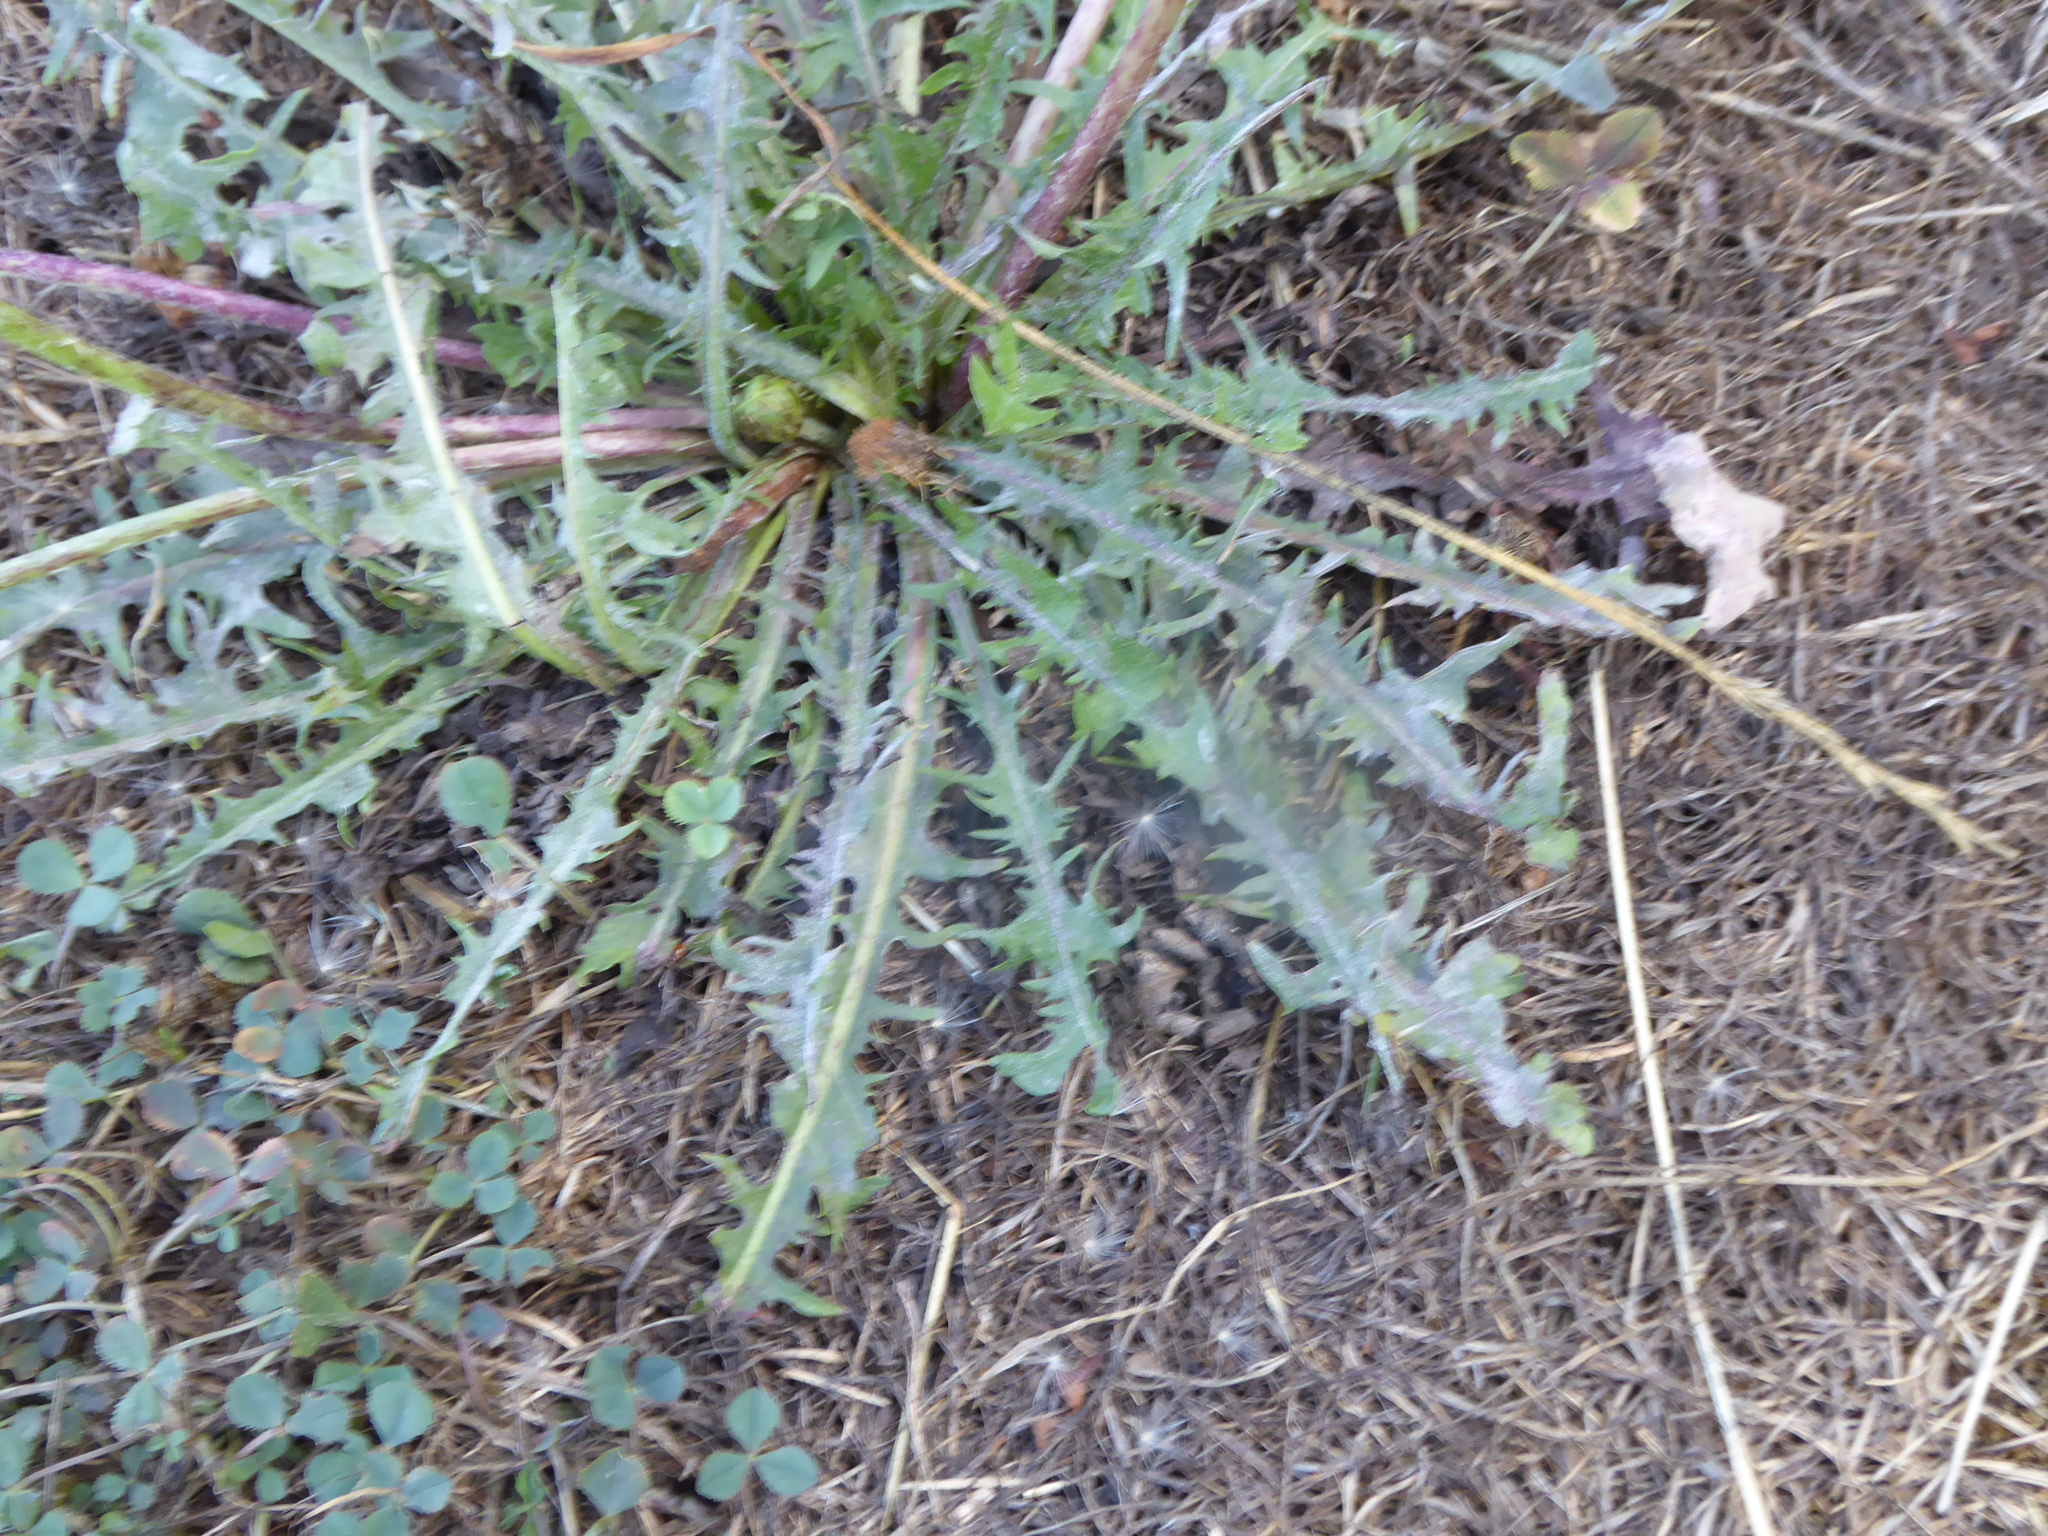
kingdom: Plantae
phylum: Tracheophyta
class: Magnoliopsida
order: Asterales
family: Asteraceae
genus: Taraxacum
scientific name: Taraxacum
